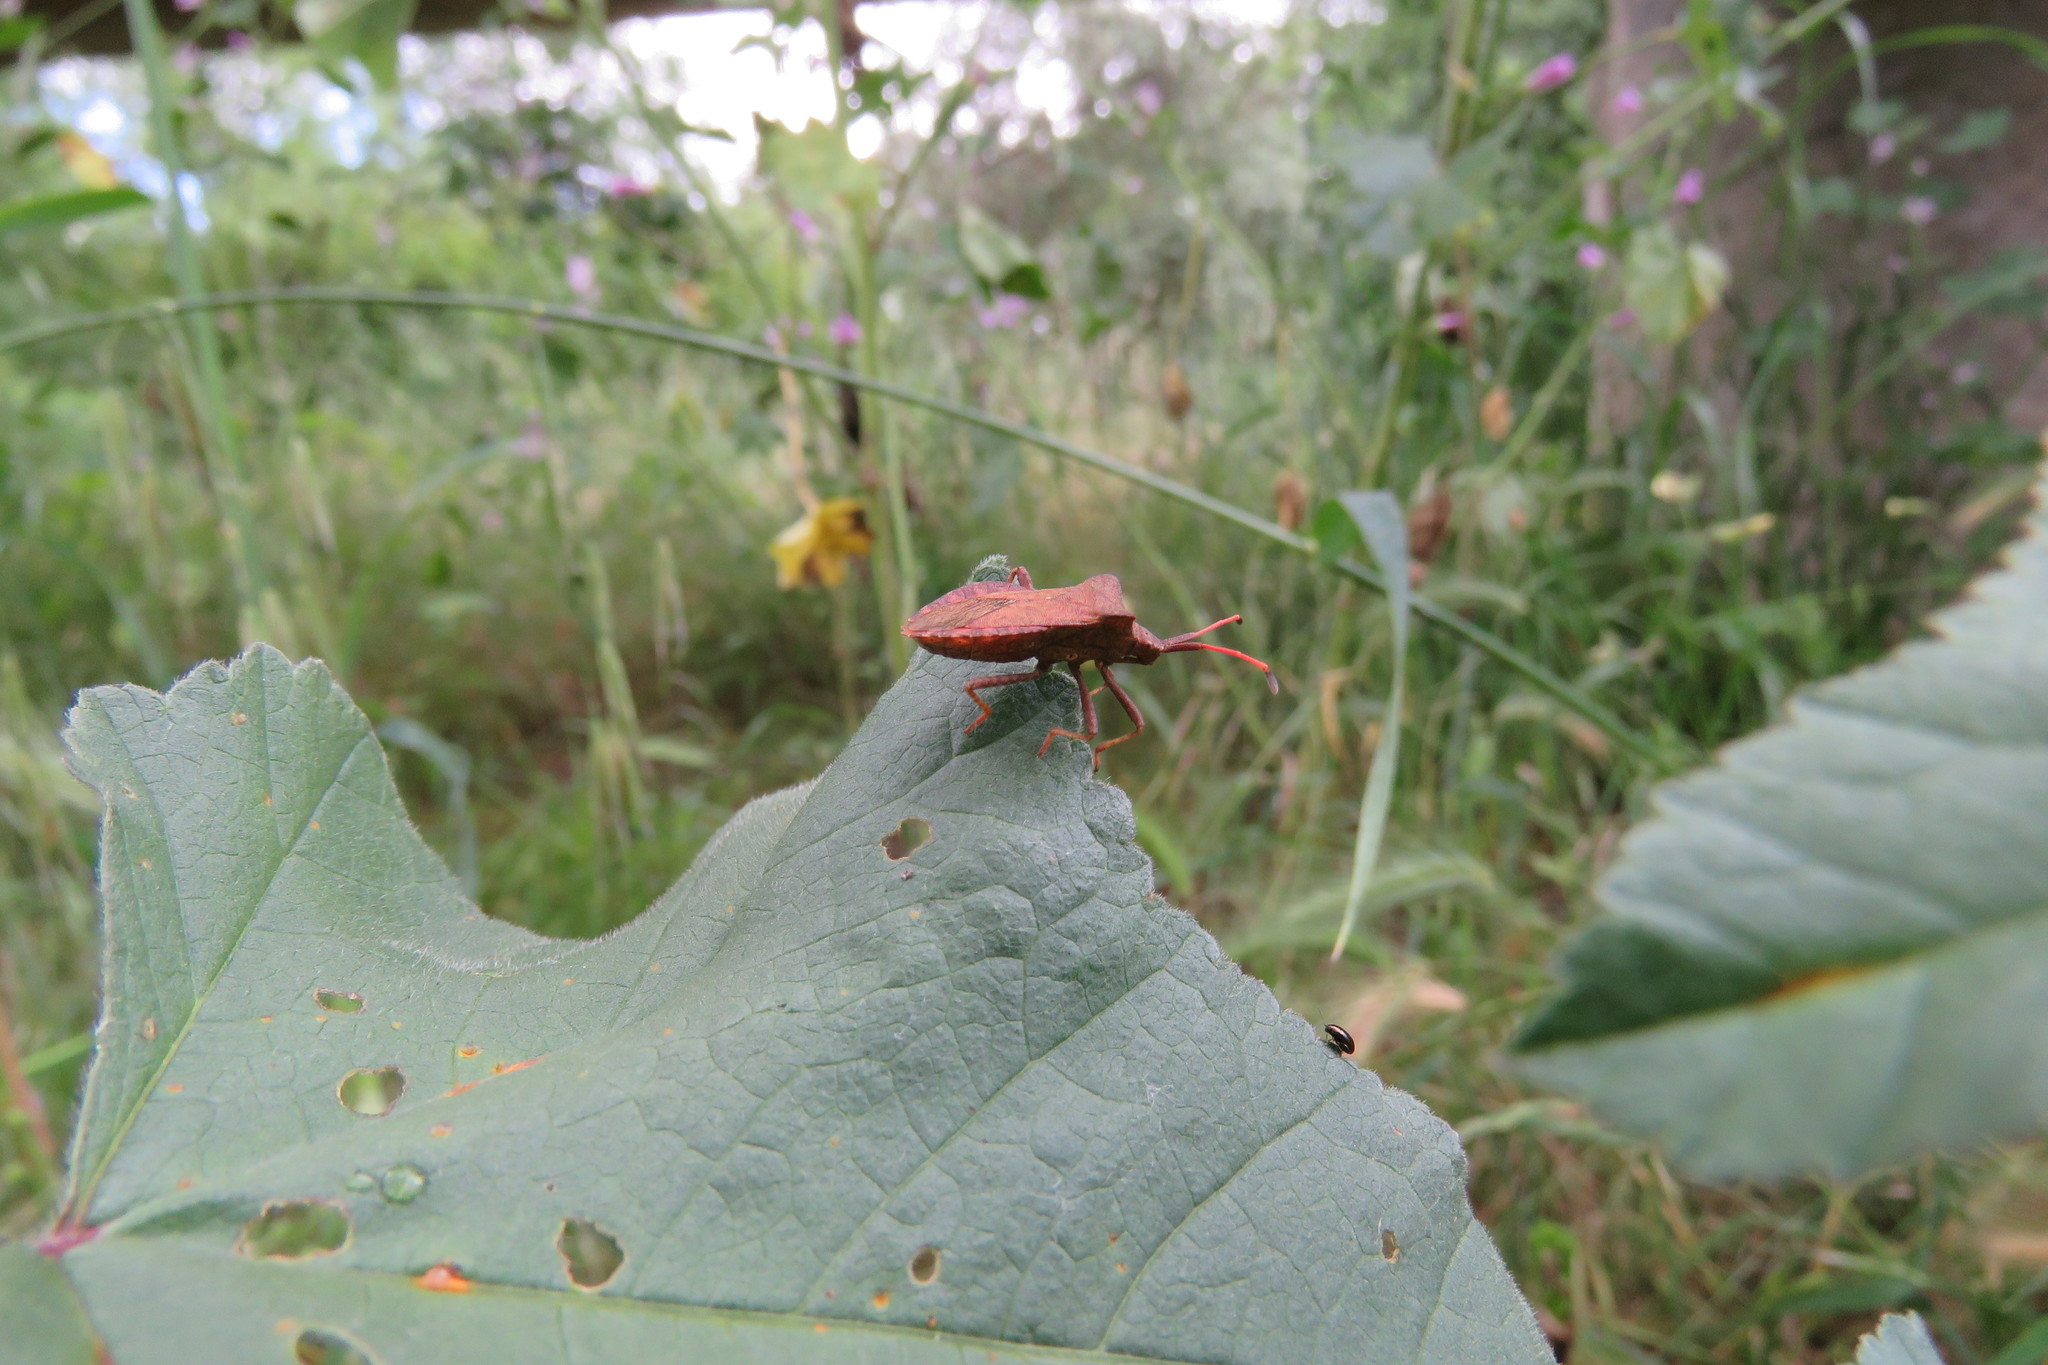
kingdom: Animalia
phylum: Arthropoda
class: Insecta
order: Hemiptera
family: Coreidae
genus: Coreus
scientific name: Coreus marginatus
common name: Dock bug
